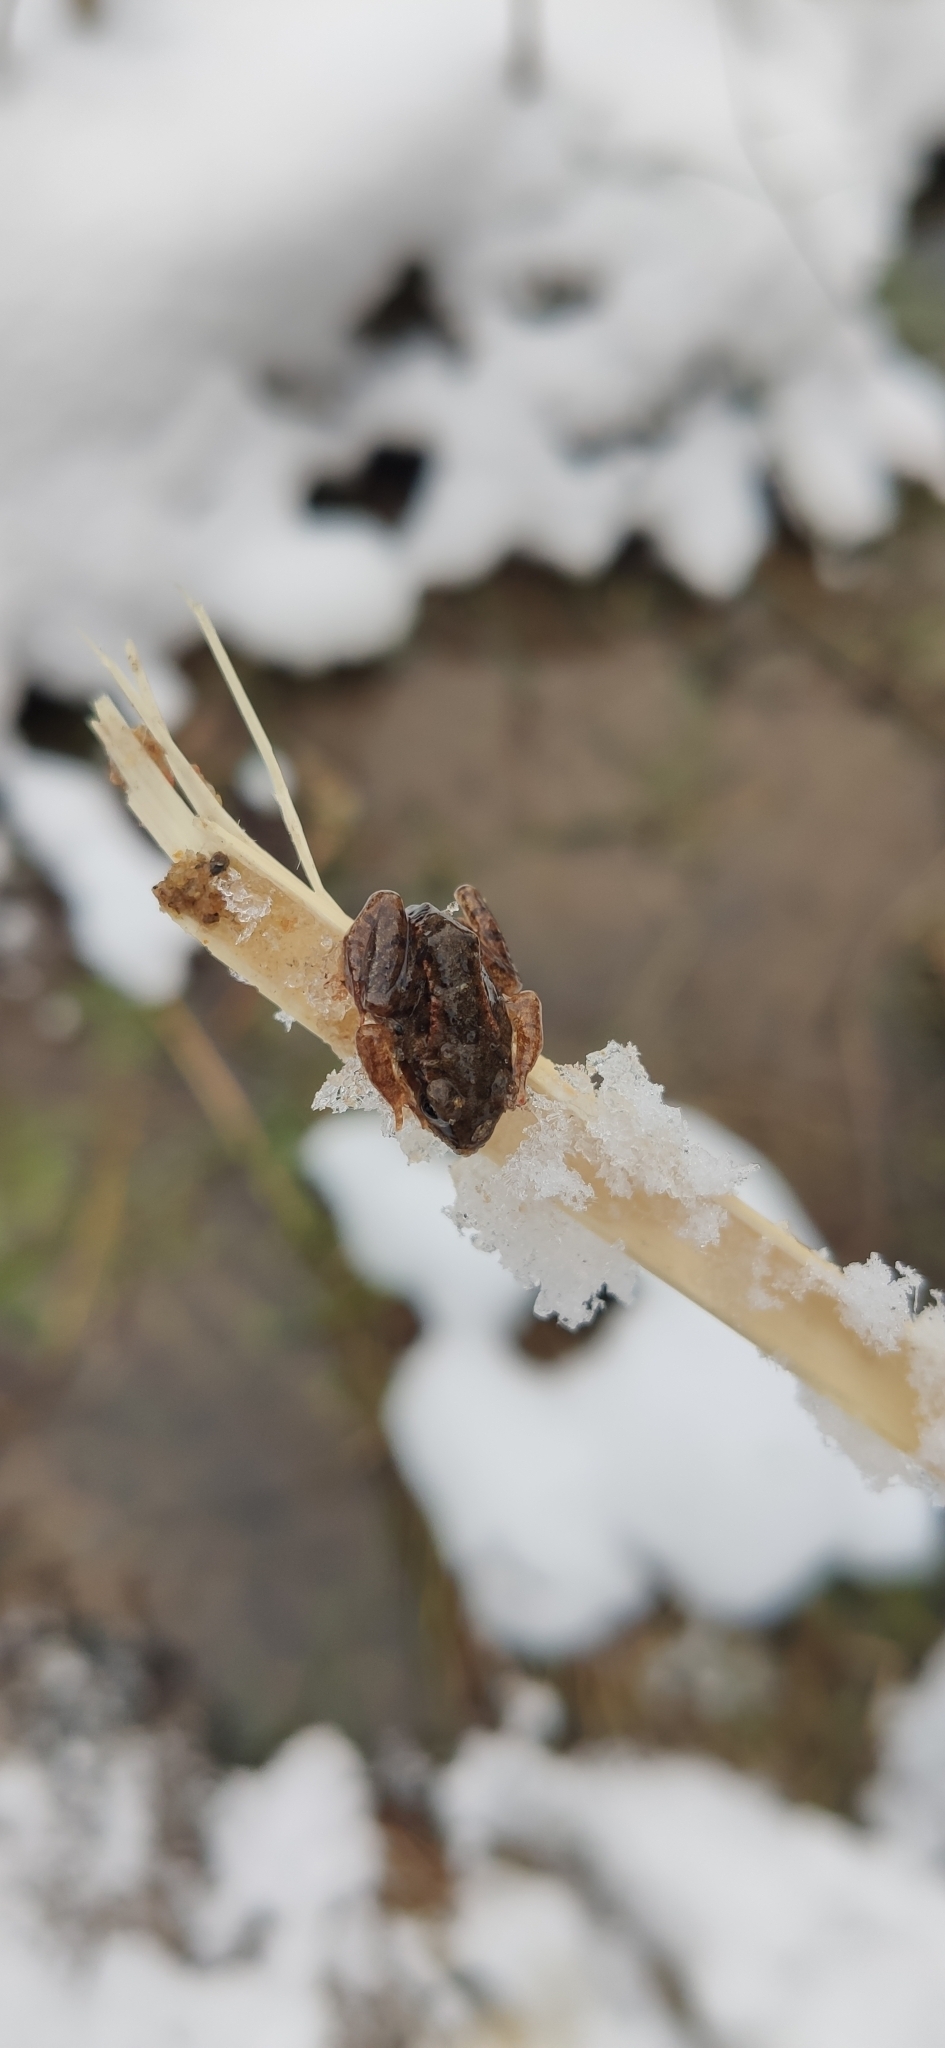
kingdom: Animalia
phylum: Chordata
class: Amphibia
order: Anura
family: Ranidae
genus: Rana
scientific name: Rana temporaria
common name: Common frog
